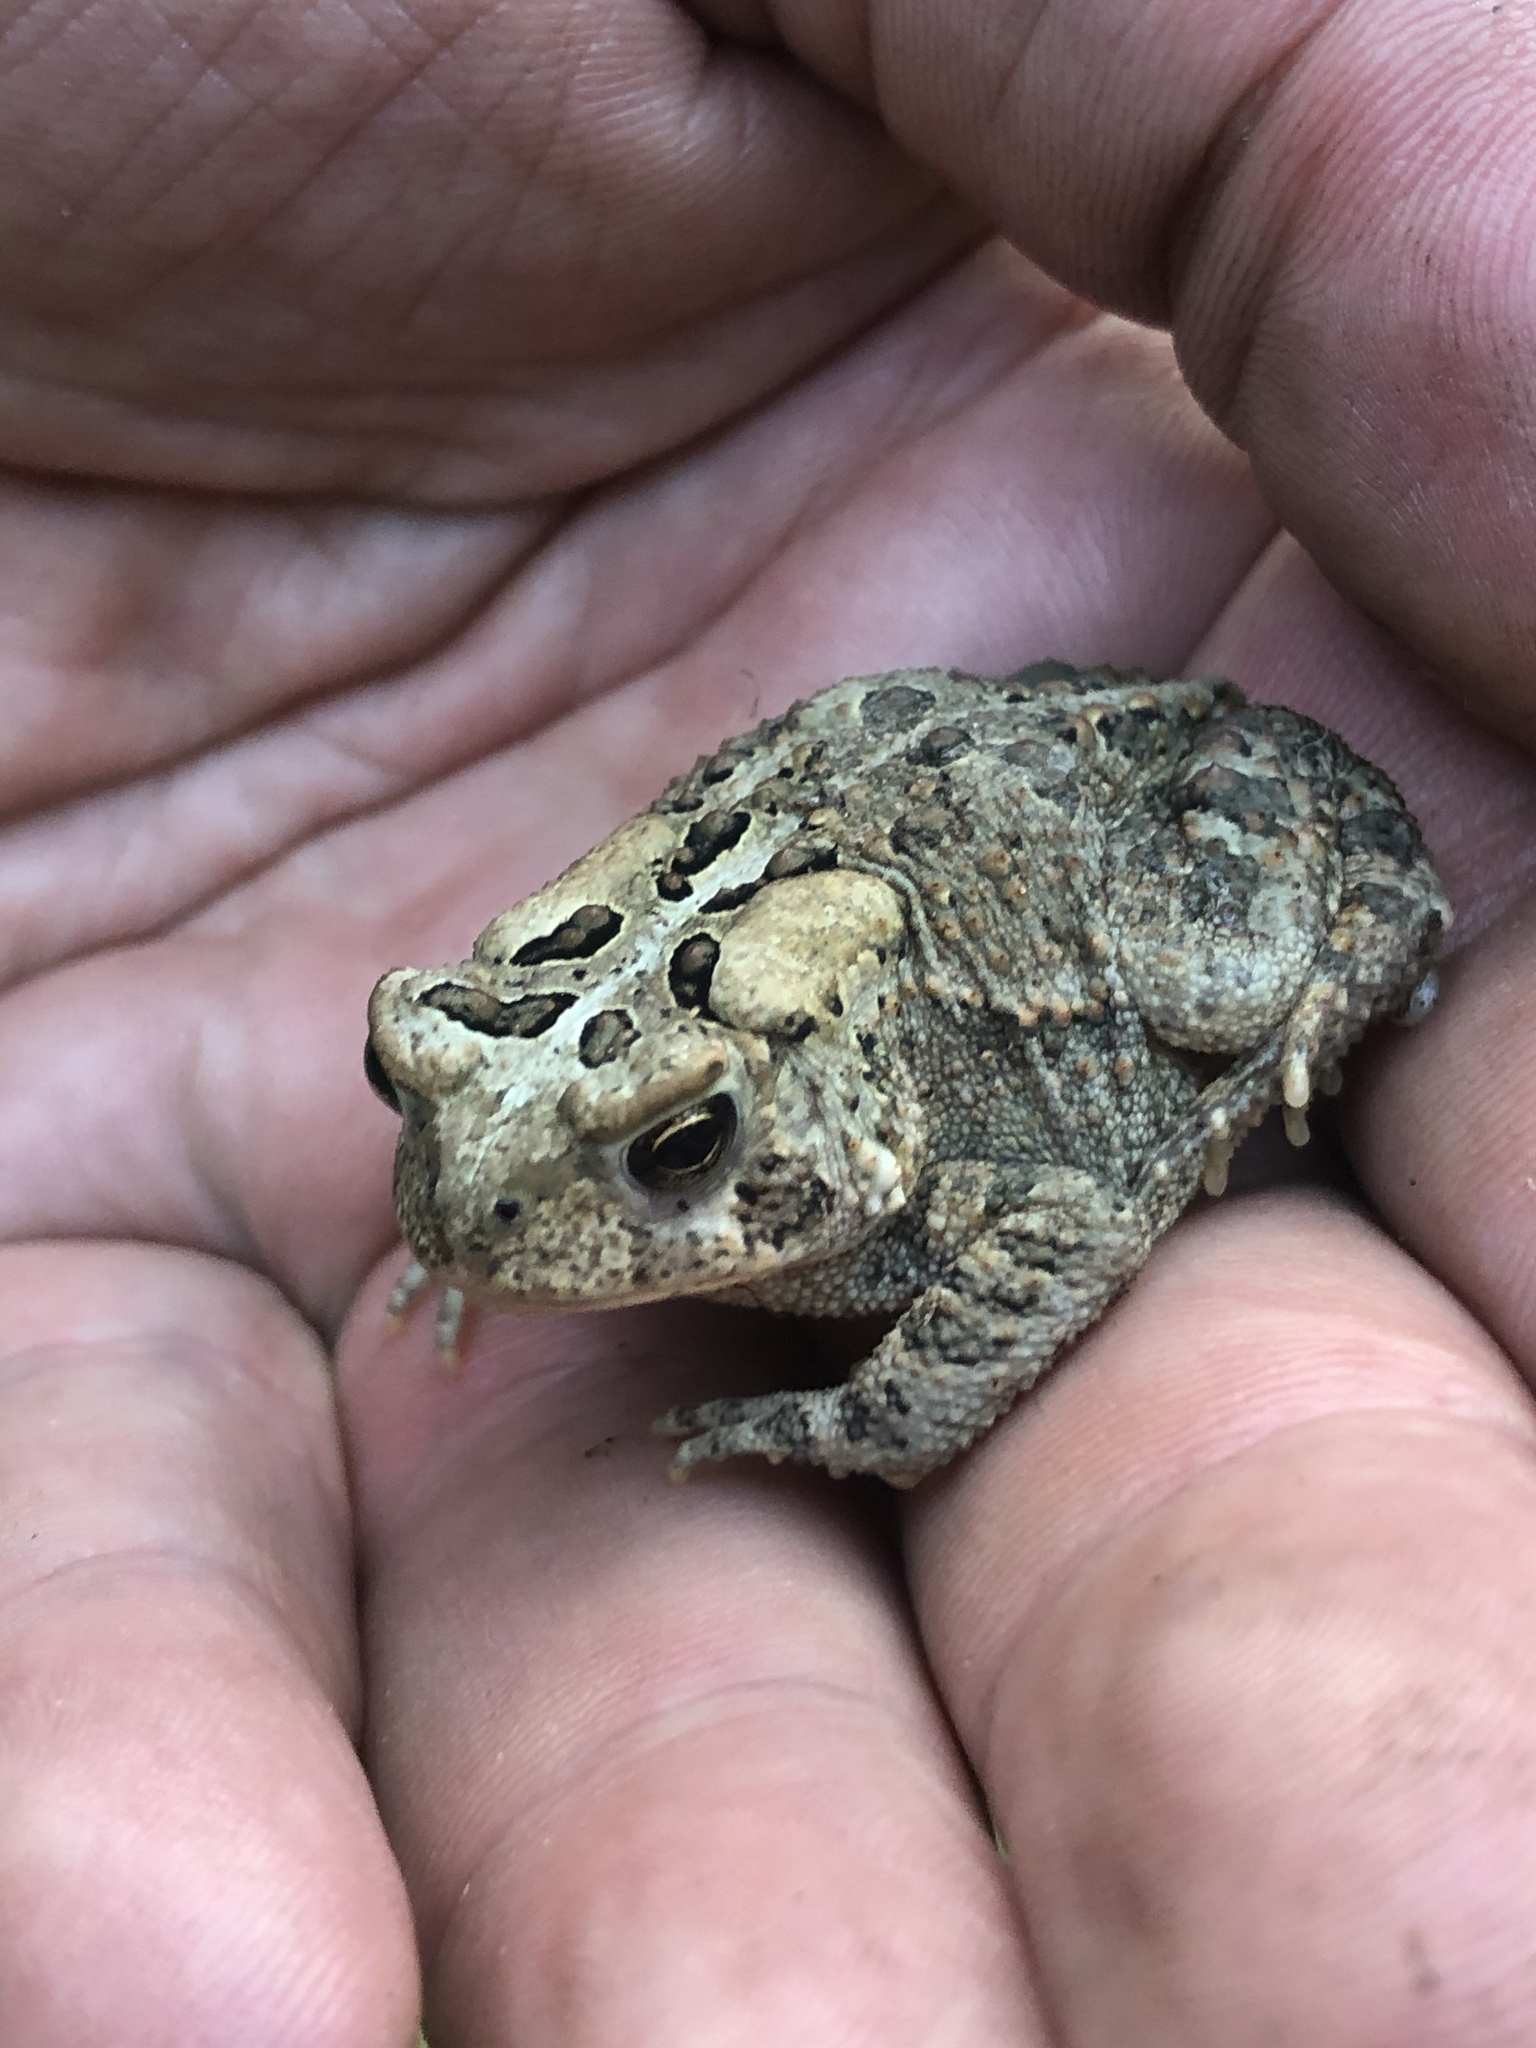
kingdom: Animalia
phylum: Chordata
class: Amphibia
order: Anura
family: Bufonidae
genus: Anaxyrus
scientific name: Anaxyrus americanus
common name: American toad
